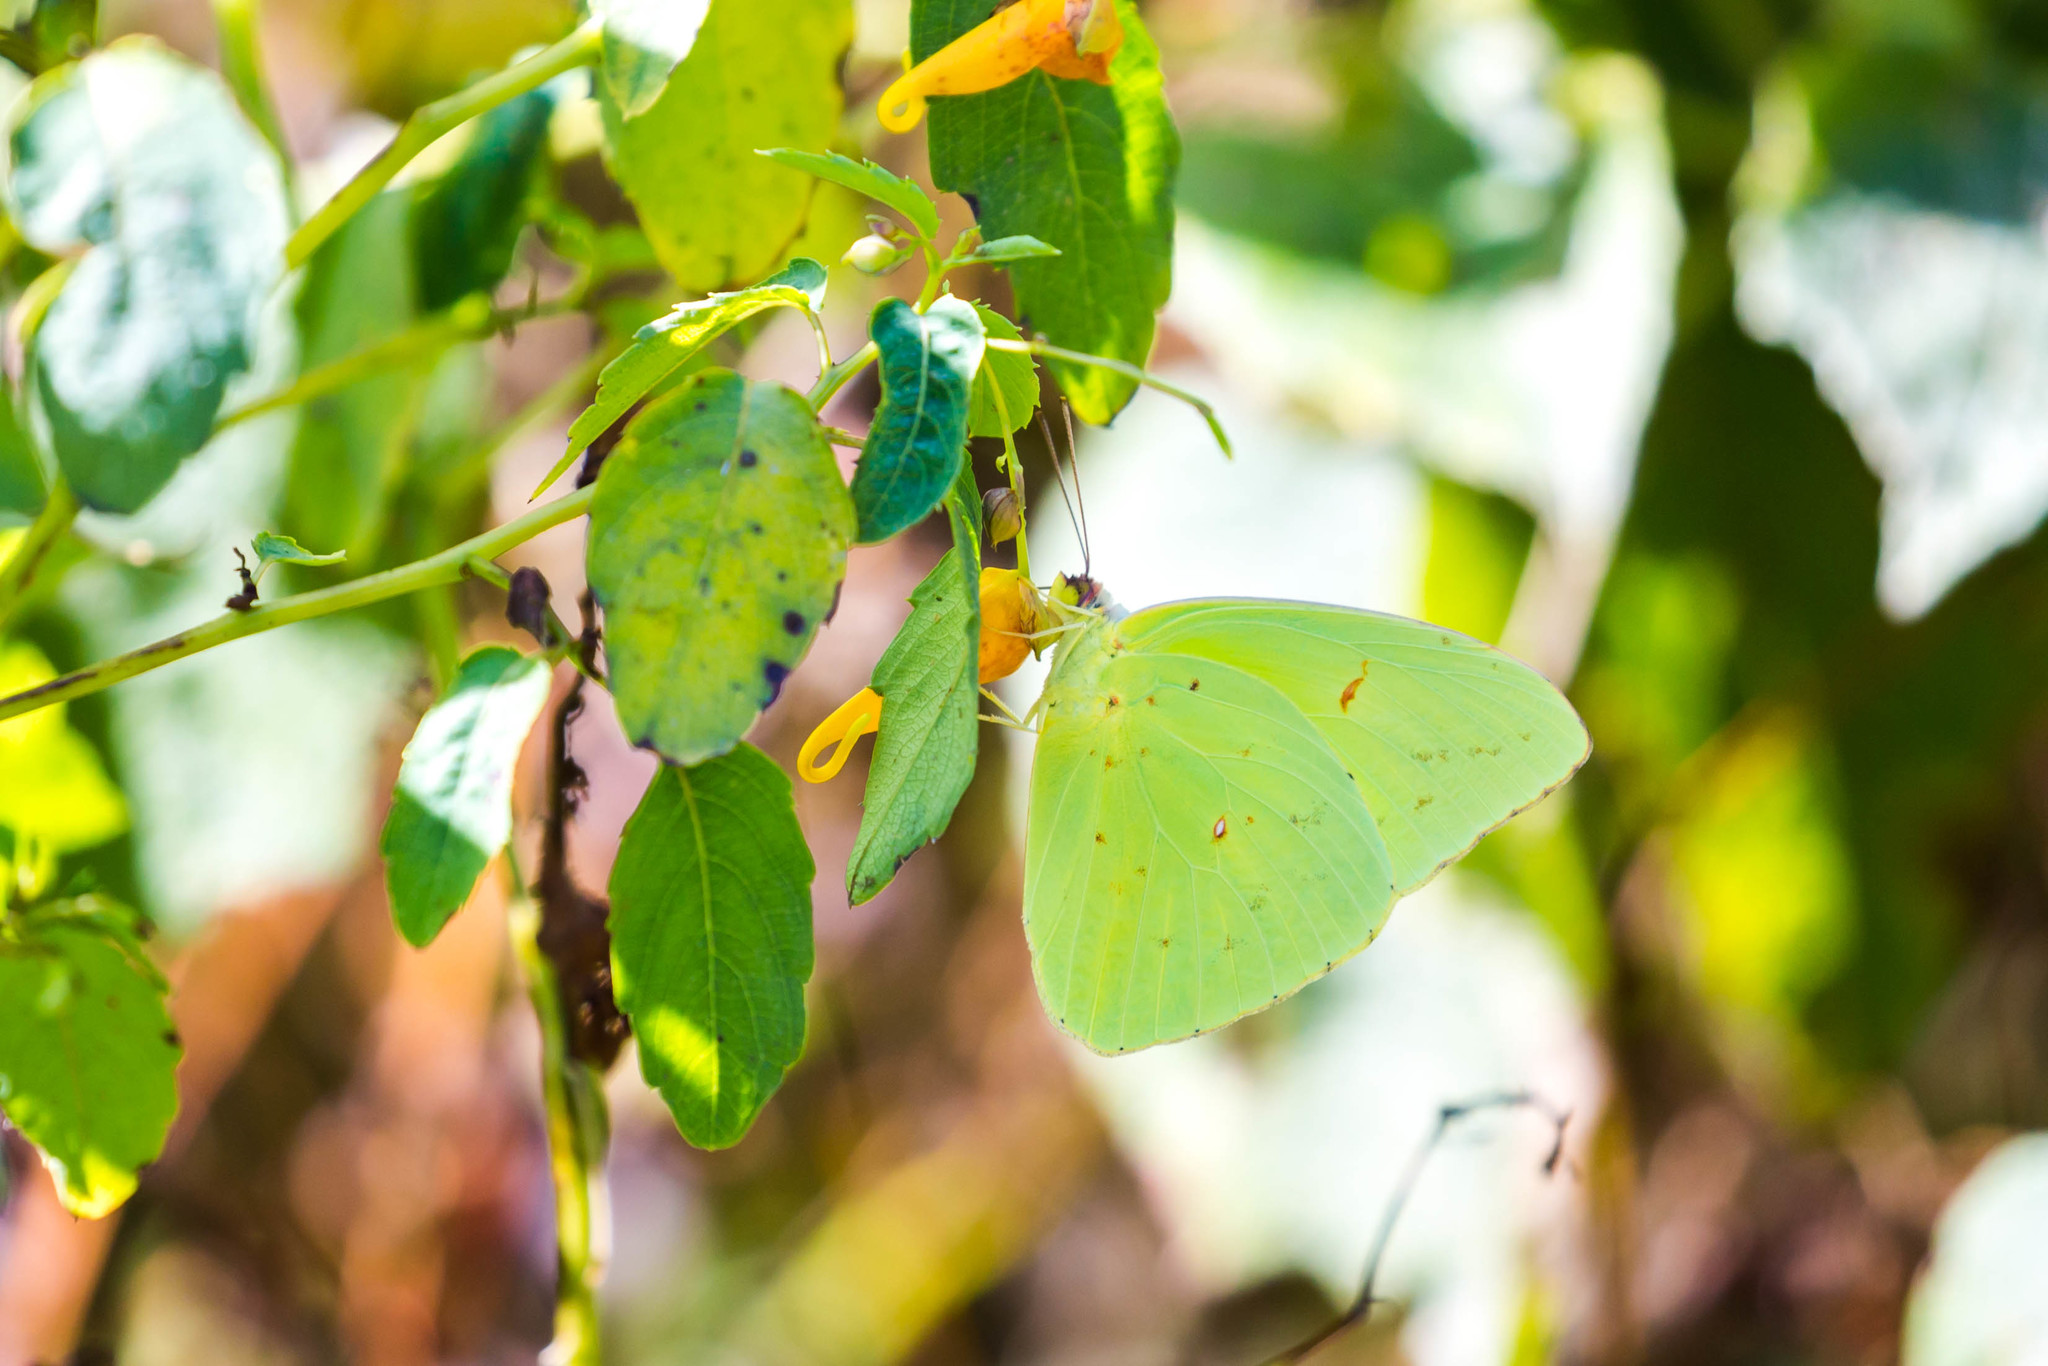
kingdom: Animalia
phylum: Arthropoda
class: Insecta
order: Lepidoptera
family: Pieridae
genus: Phoebis
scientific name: Phoebis sennae
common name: Cloudless sulphur
